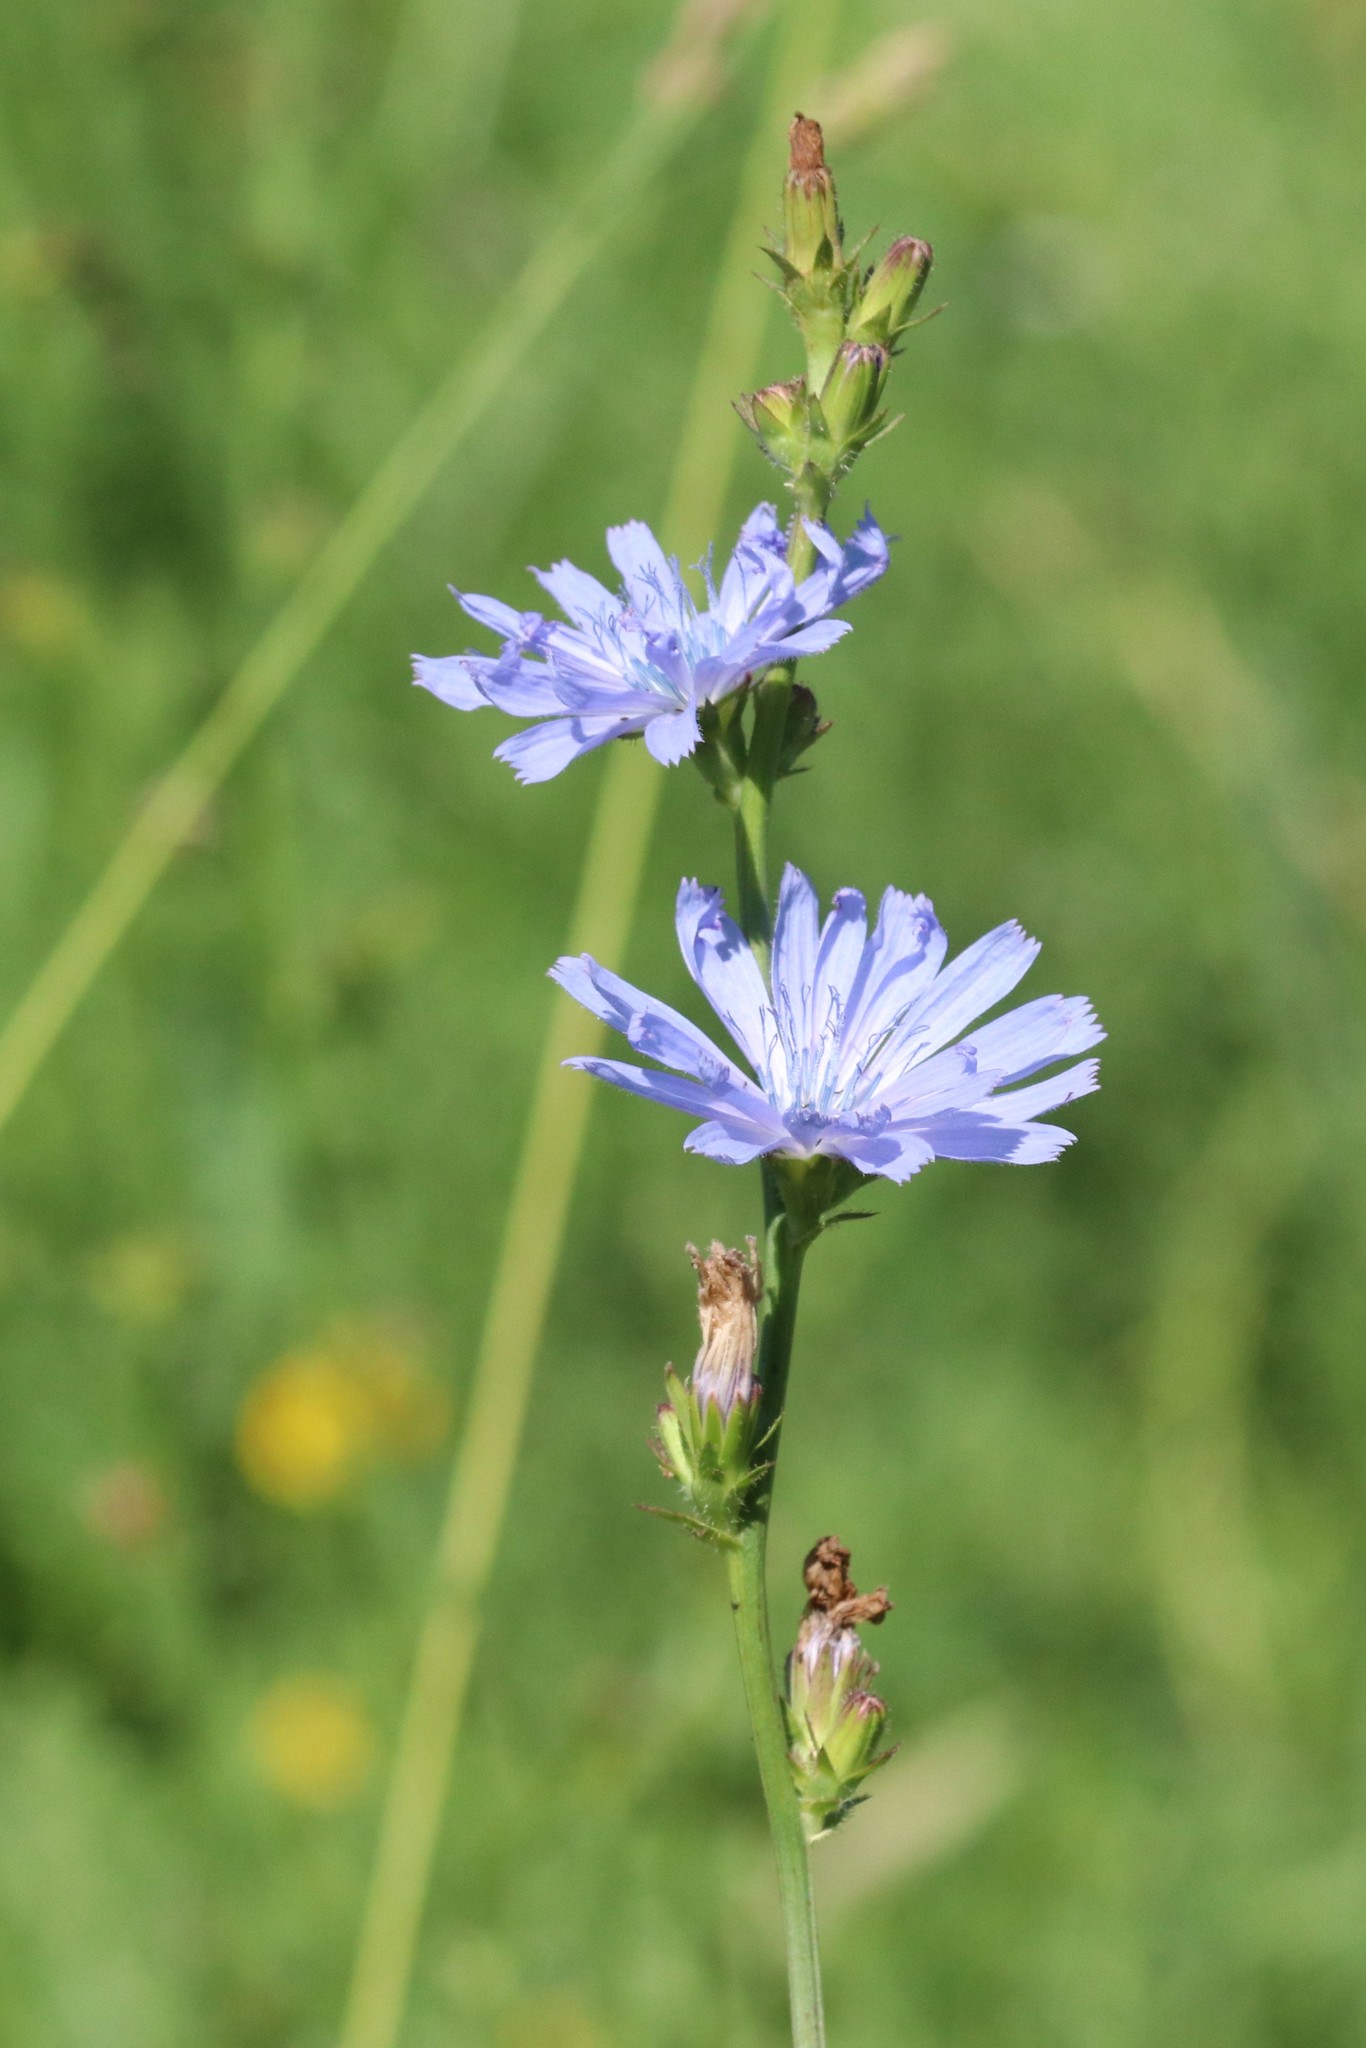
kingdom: Plantae
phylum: Tracheophyta
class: Magnoliopsida
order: Asterales
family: Asteraceae
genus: Cichorium
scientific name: Cichorium intybus
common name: Chicory
